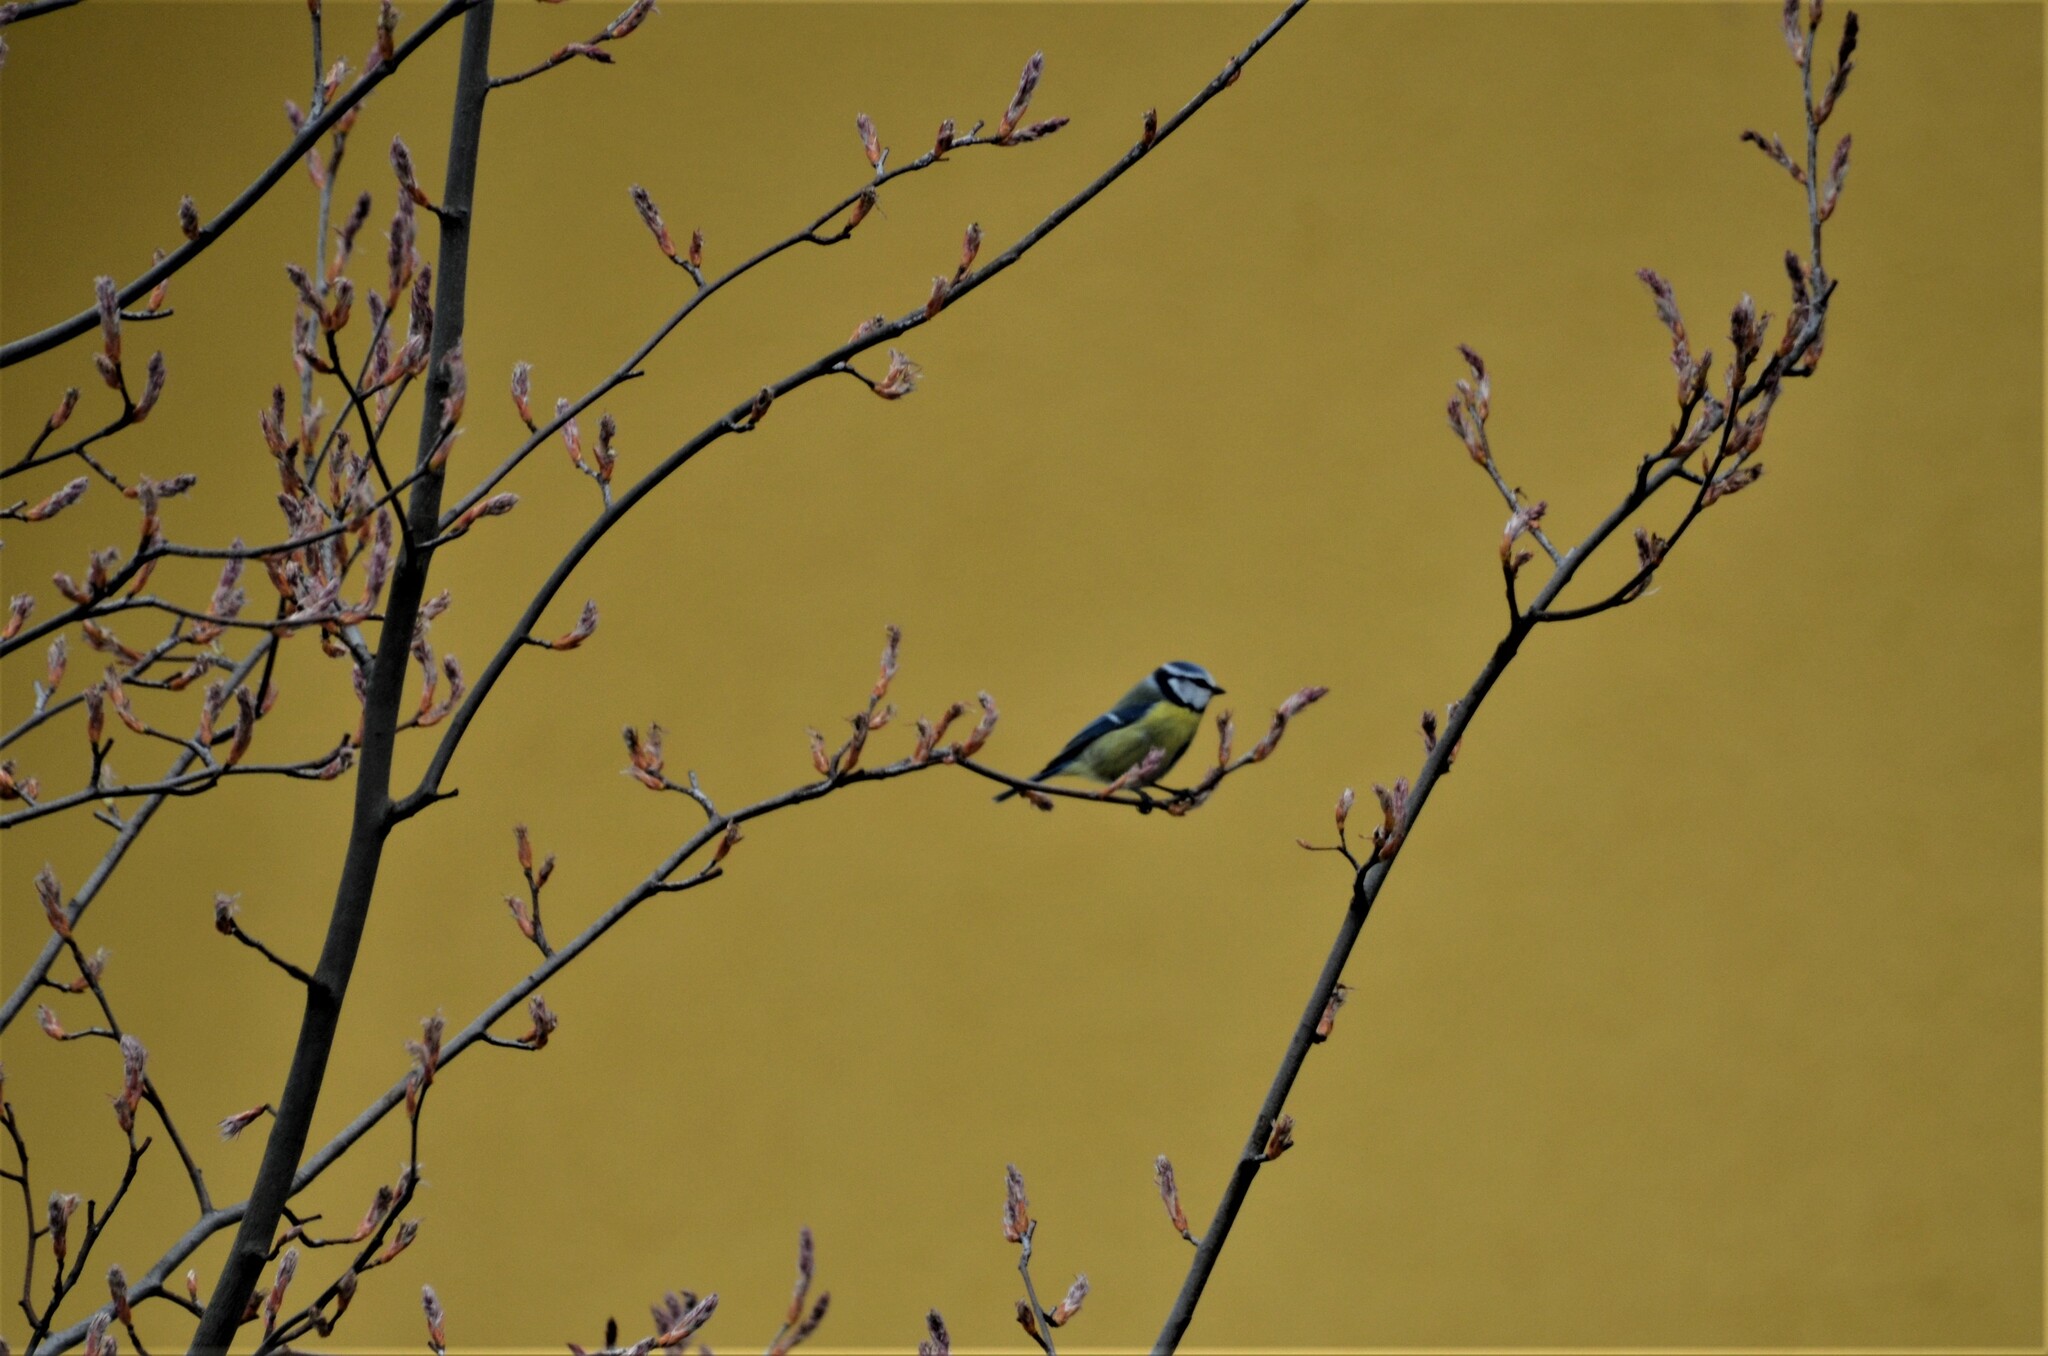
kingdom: Animalia
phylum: Chordata
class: Aves
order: Passeriformes
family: Paridae
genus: Cyanistes
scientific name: Cyanistes caeruleus
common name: Eurasian blue tit
